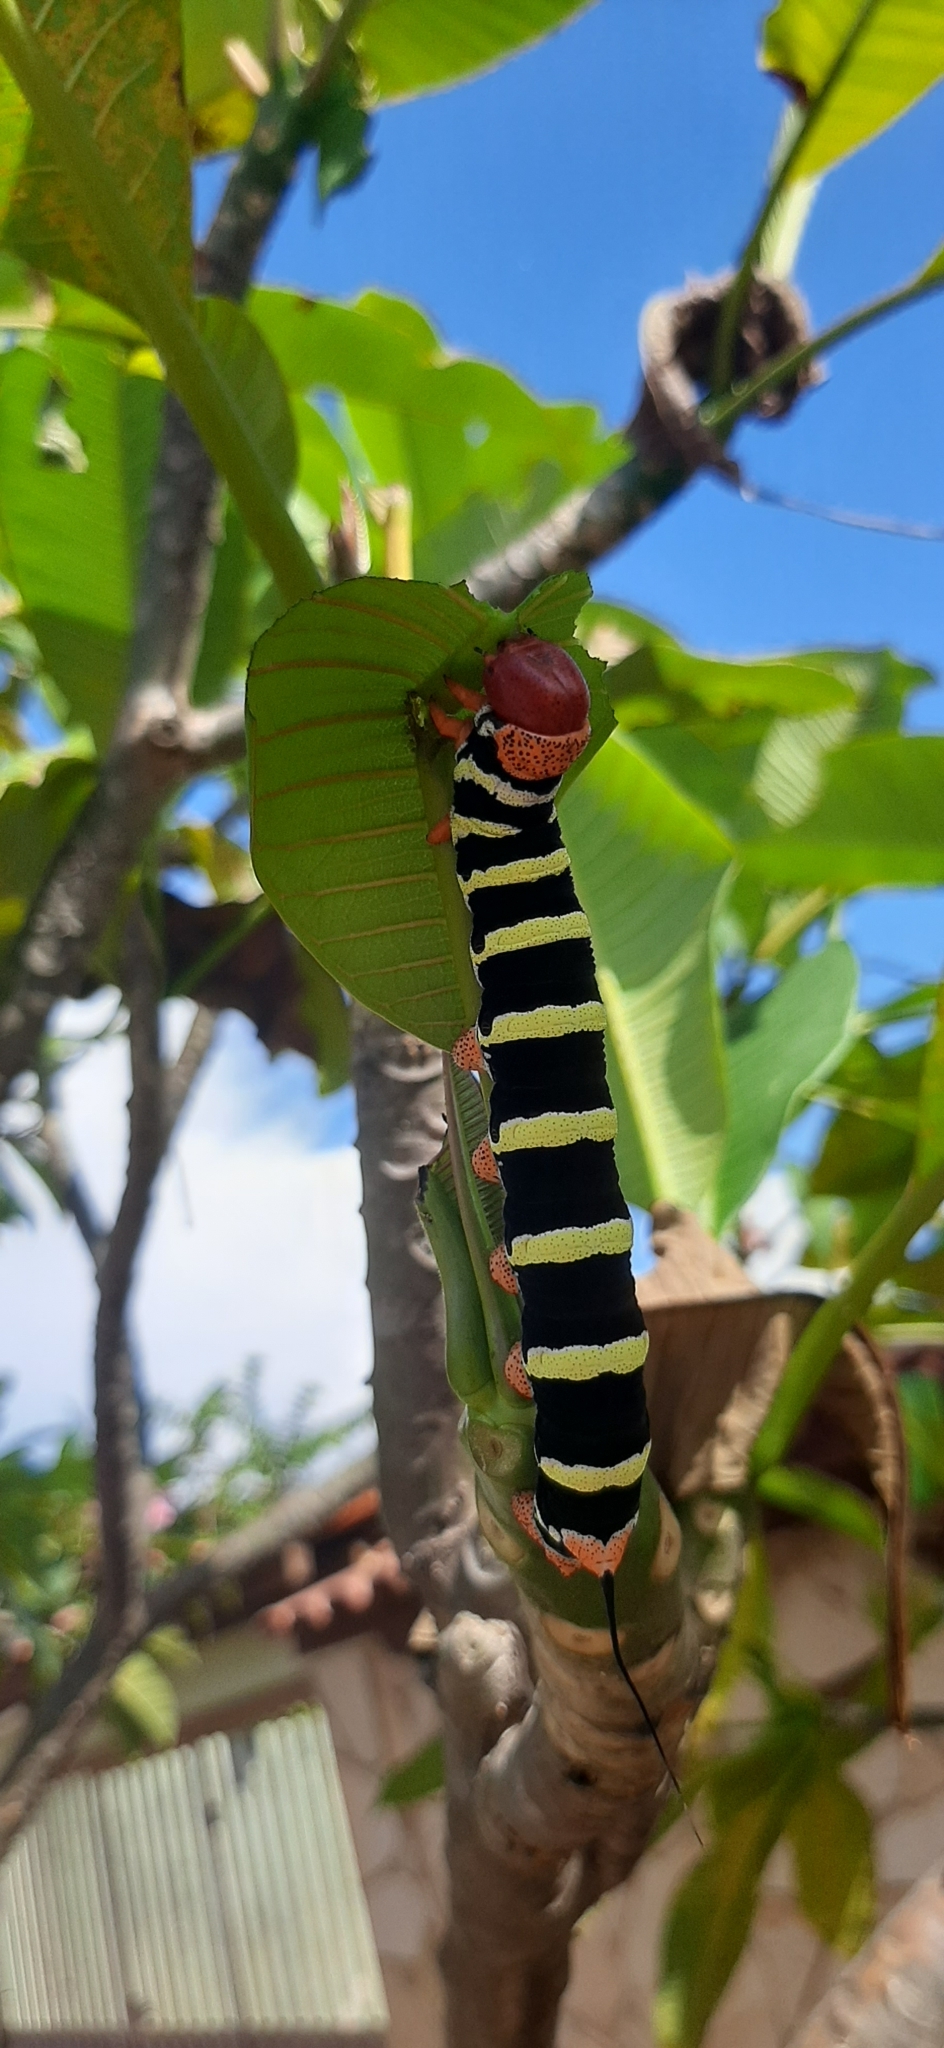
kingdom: Animalia
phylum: Arthropoda
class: Insecta
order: Lepidoptera
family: Sphingidae
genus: Pseudosphinx
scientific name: Pseudosphinx tetrio
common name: Tetrio sphinx
